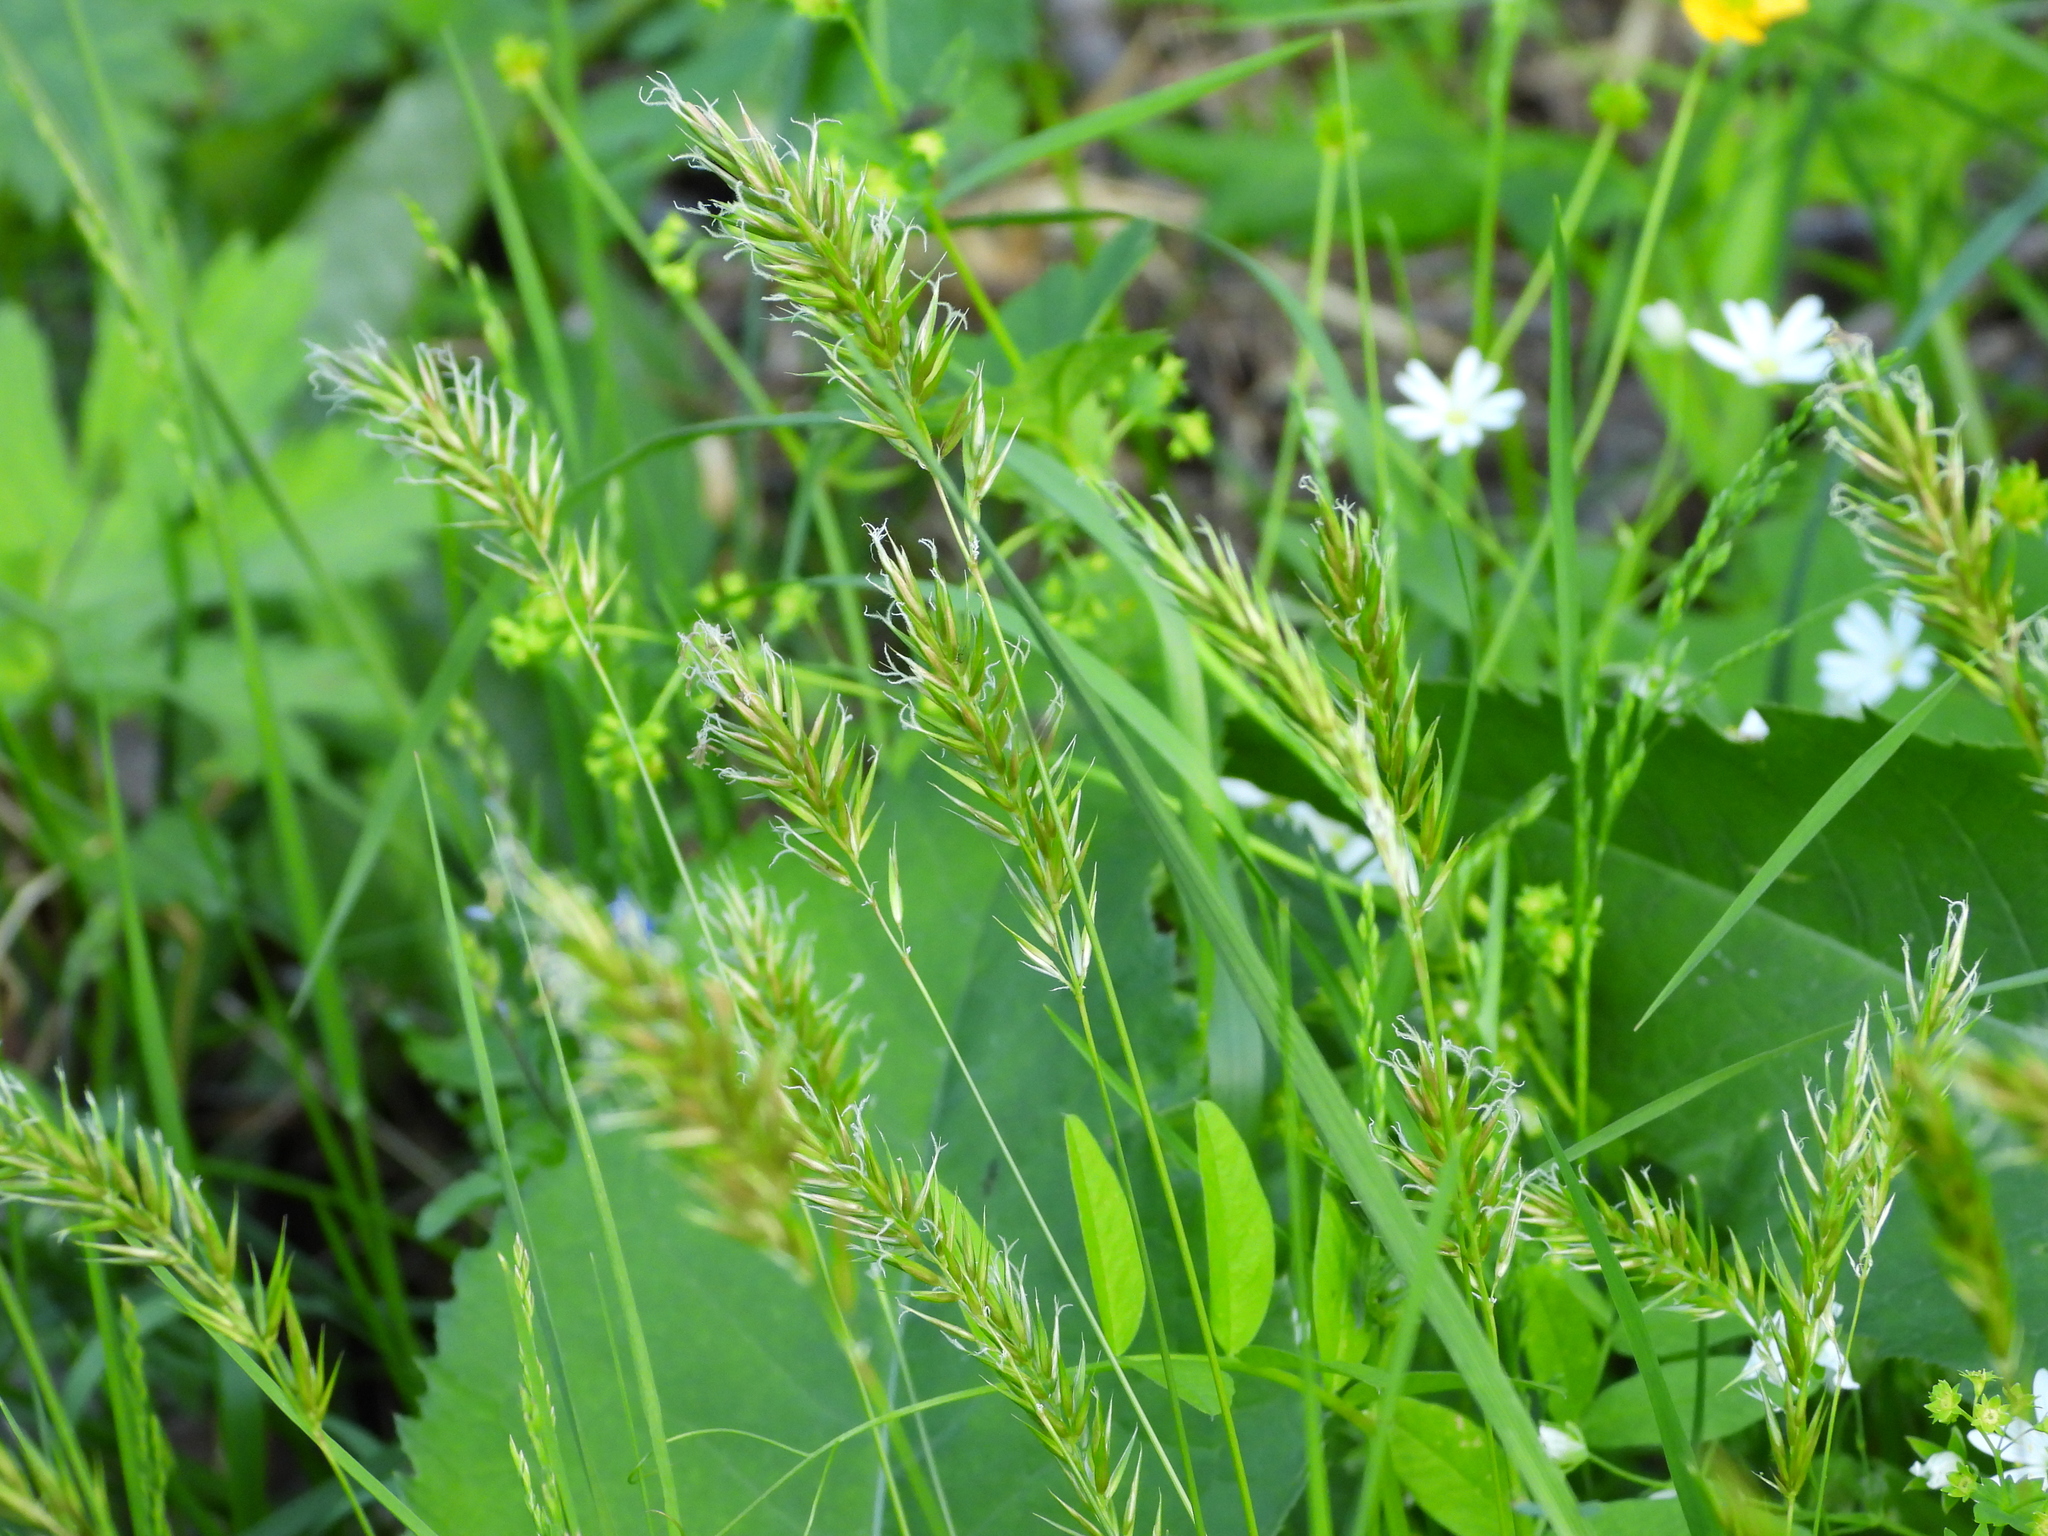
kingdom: Plantae
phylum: Tracheophyta
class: Liliopsida
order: Poales
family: Poaceae
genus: Anthoxanthum
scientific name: Anthoxanthum odoratum
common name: Sweet vernalgrass
